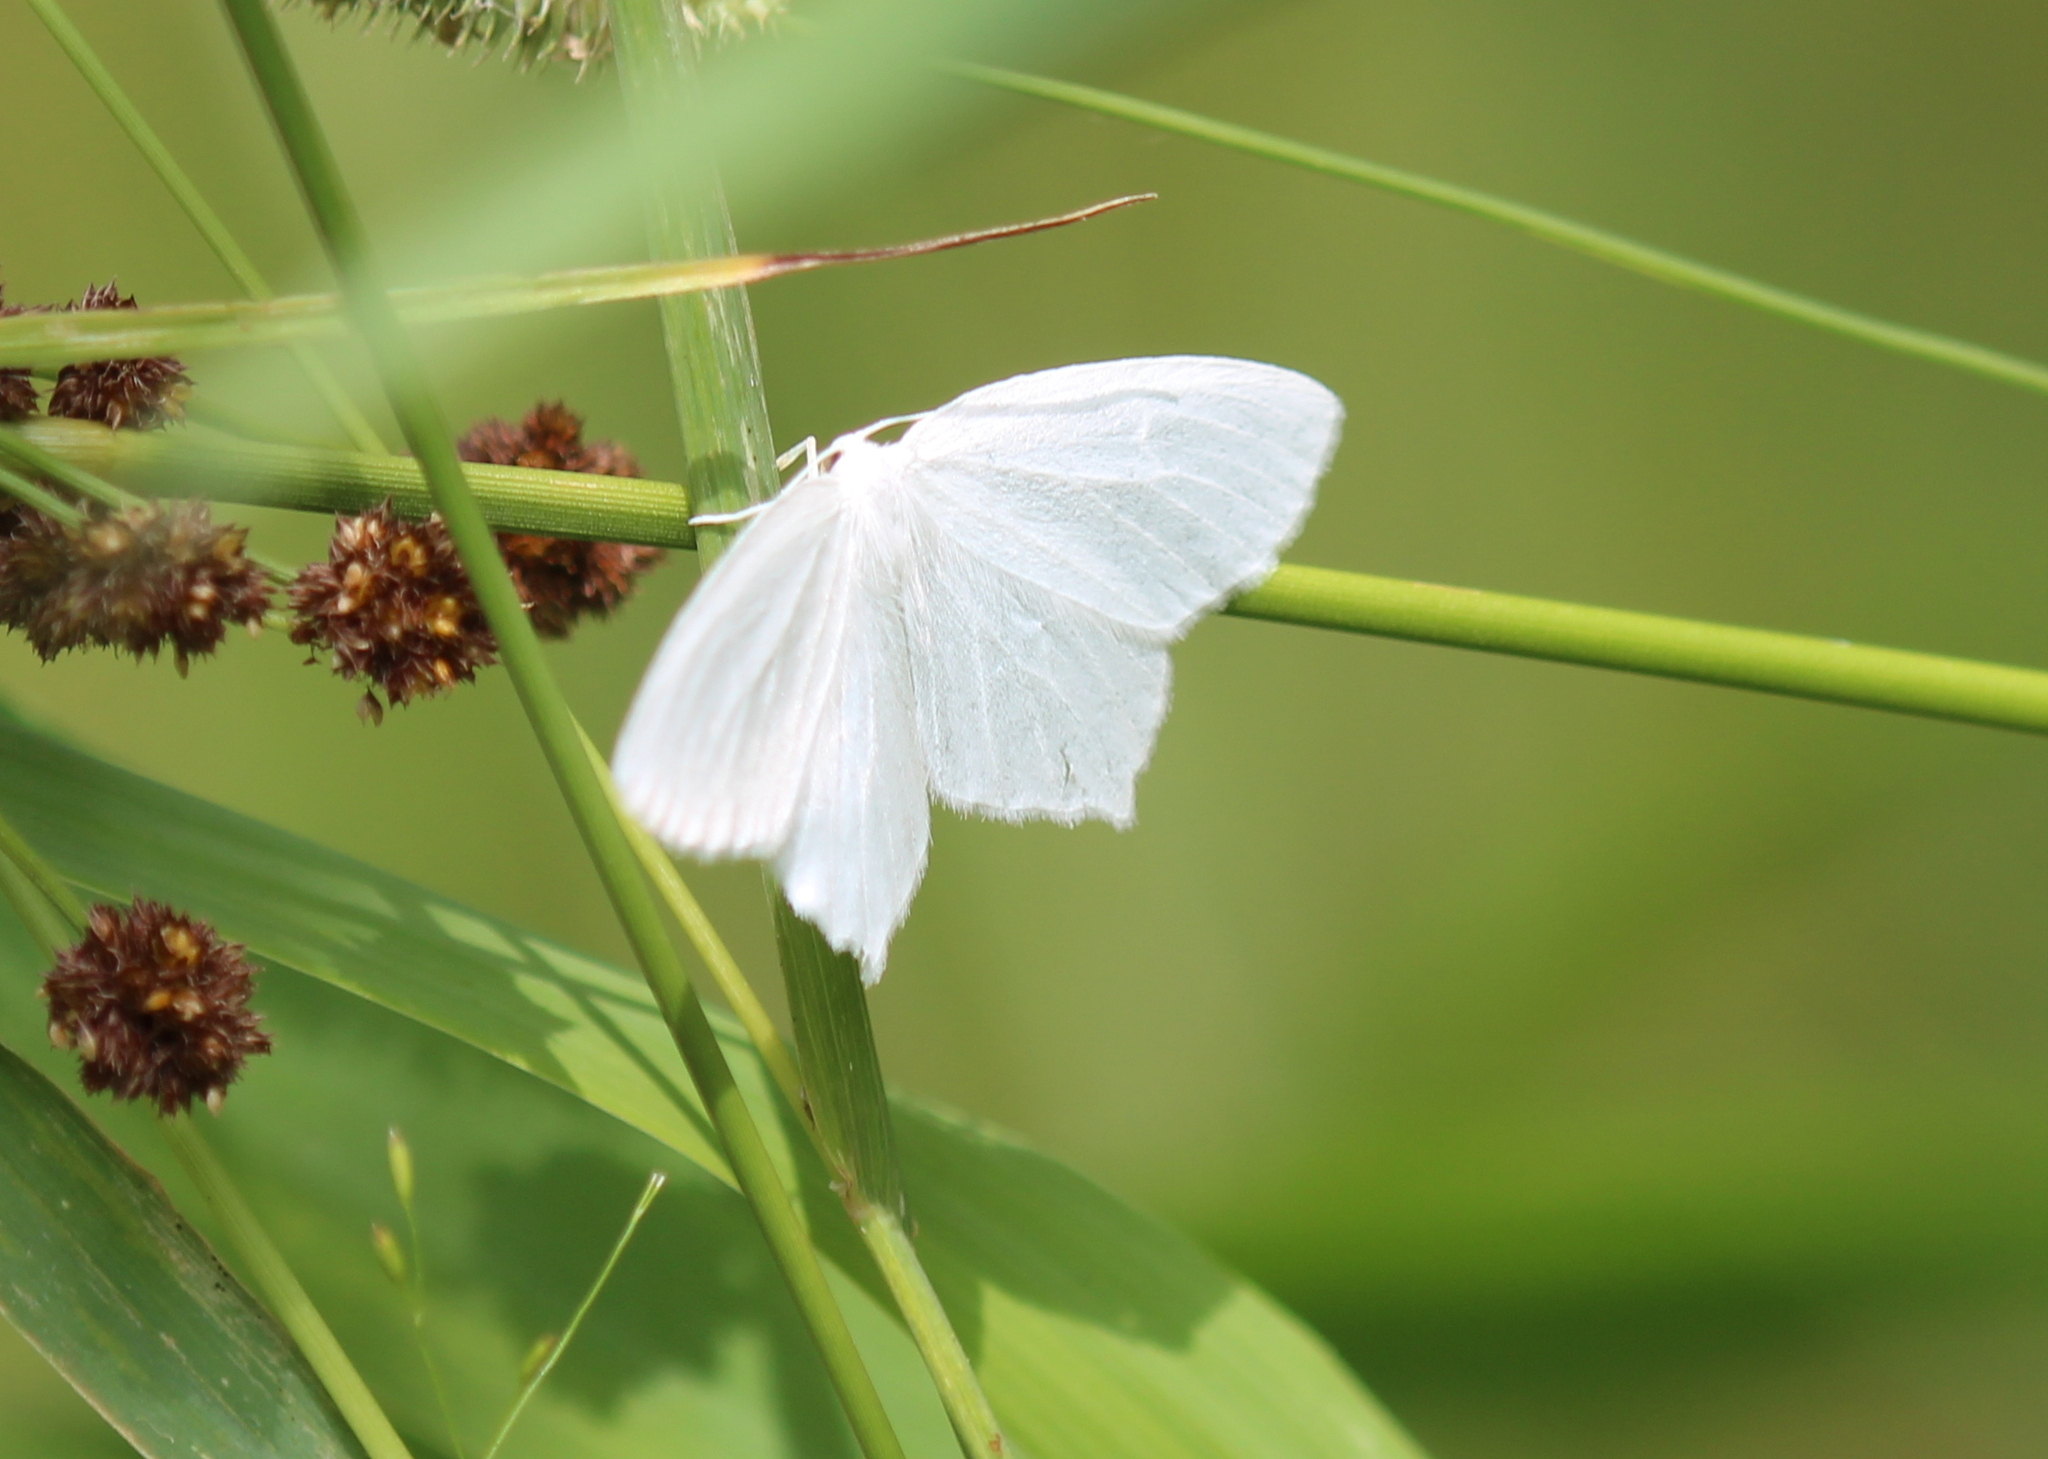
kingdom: Animalia
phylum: Arthropoda
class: Insecta
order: Lepidoptera
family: Geometridae
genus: Eugonobapta
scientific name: Eugonobapta nivosaria
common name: Snowy geometer
